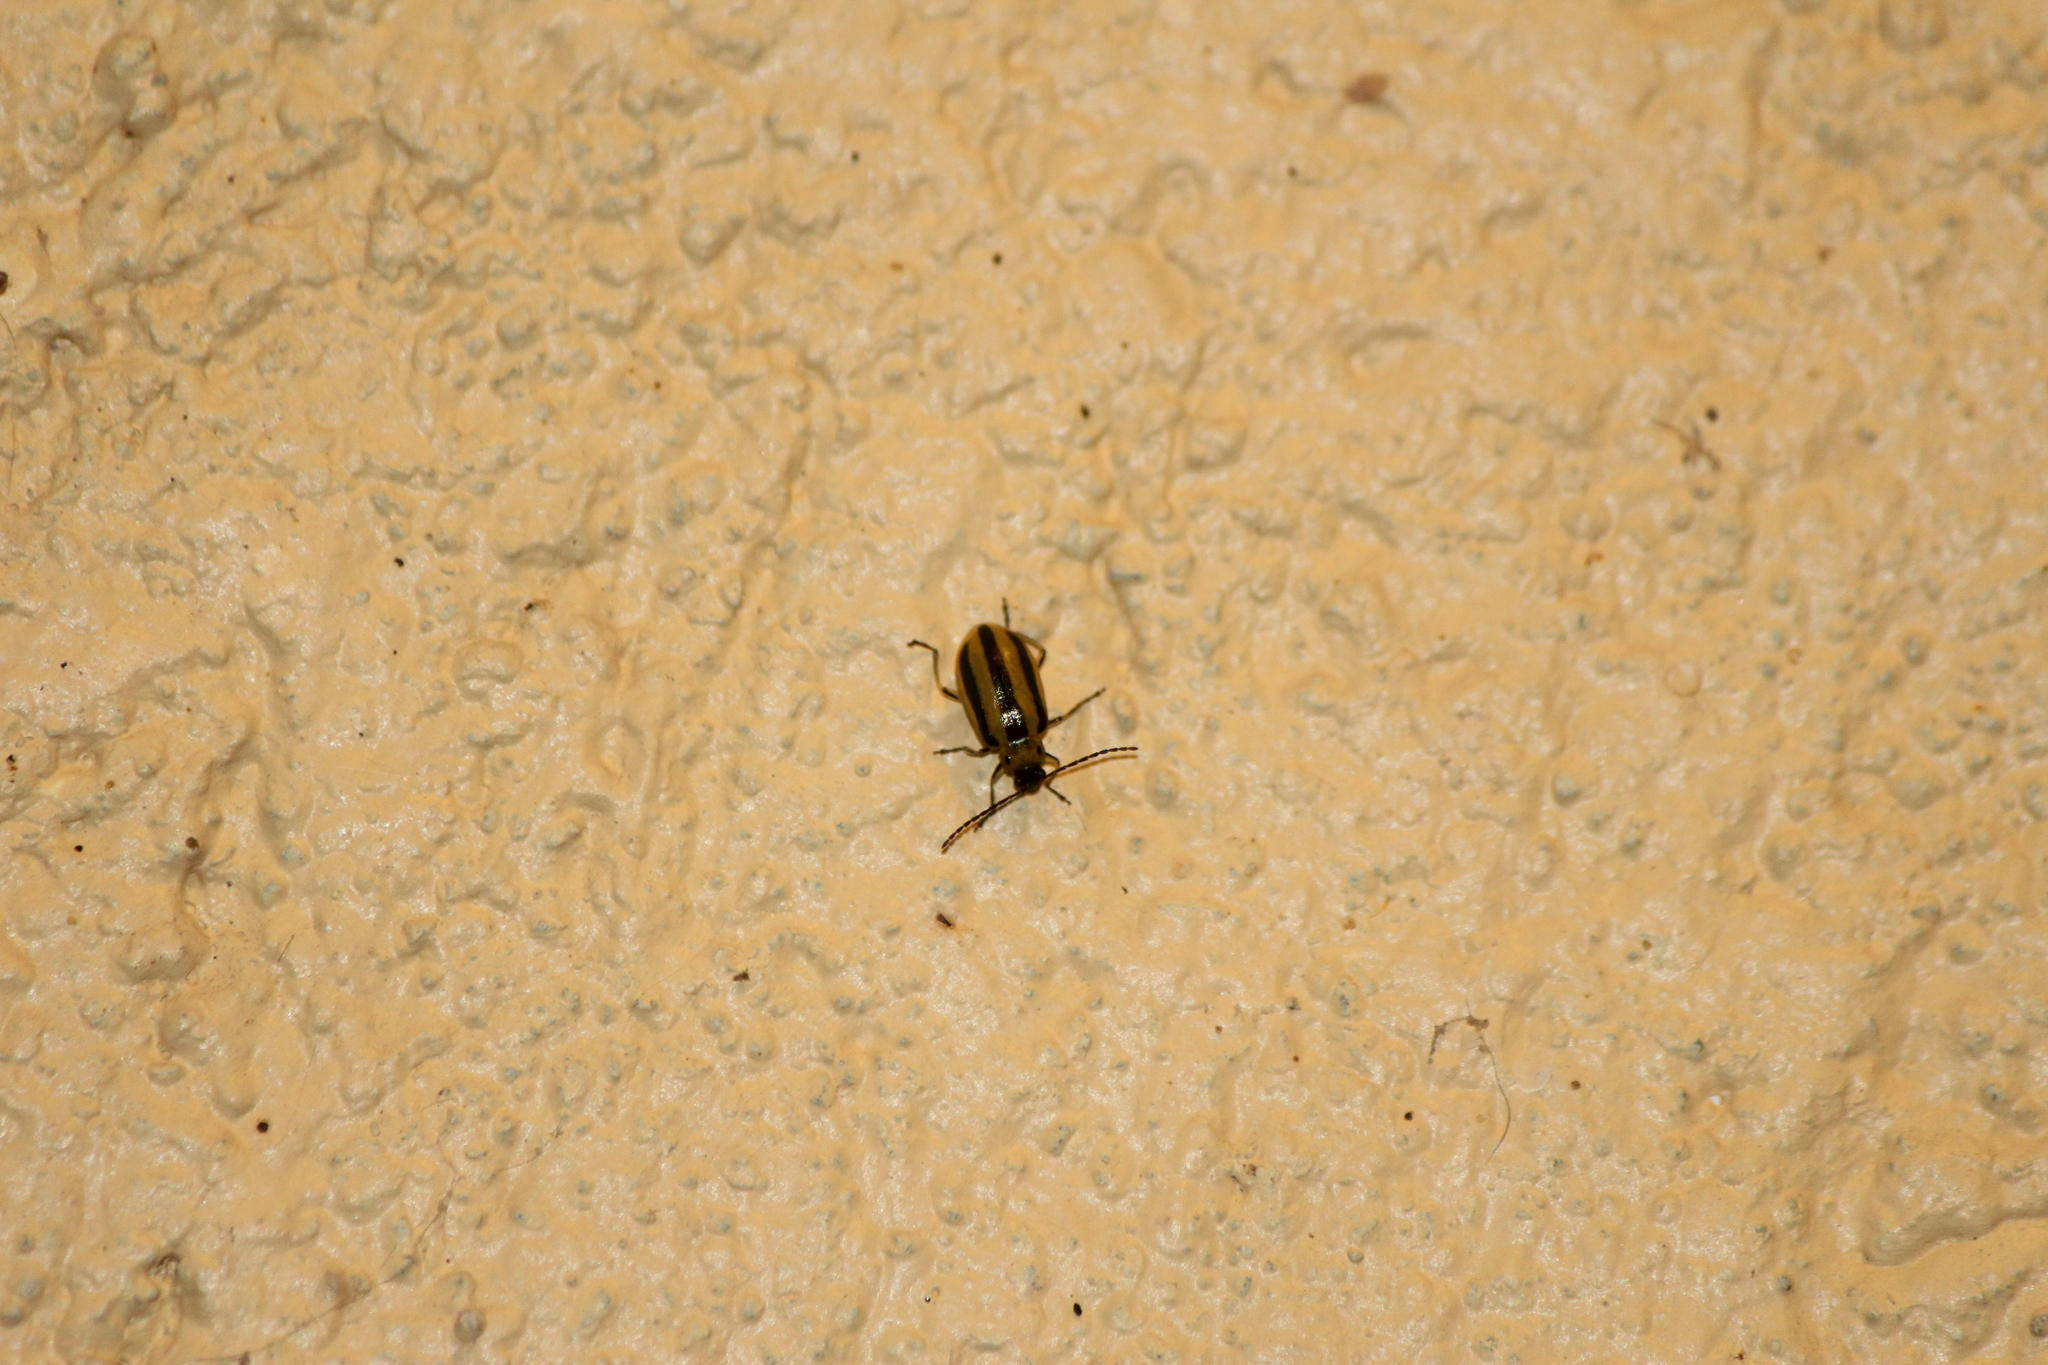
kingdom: Animalia
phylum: Arthropoda
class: Insecta
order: Coleoptera
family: Chrysomelidae
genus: Amphelasma
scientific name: Amphelasma cavum
